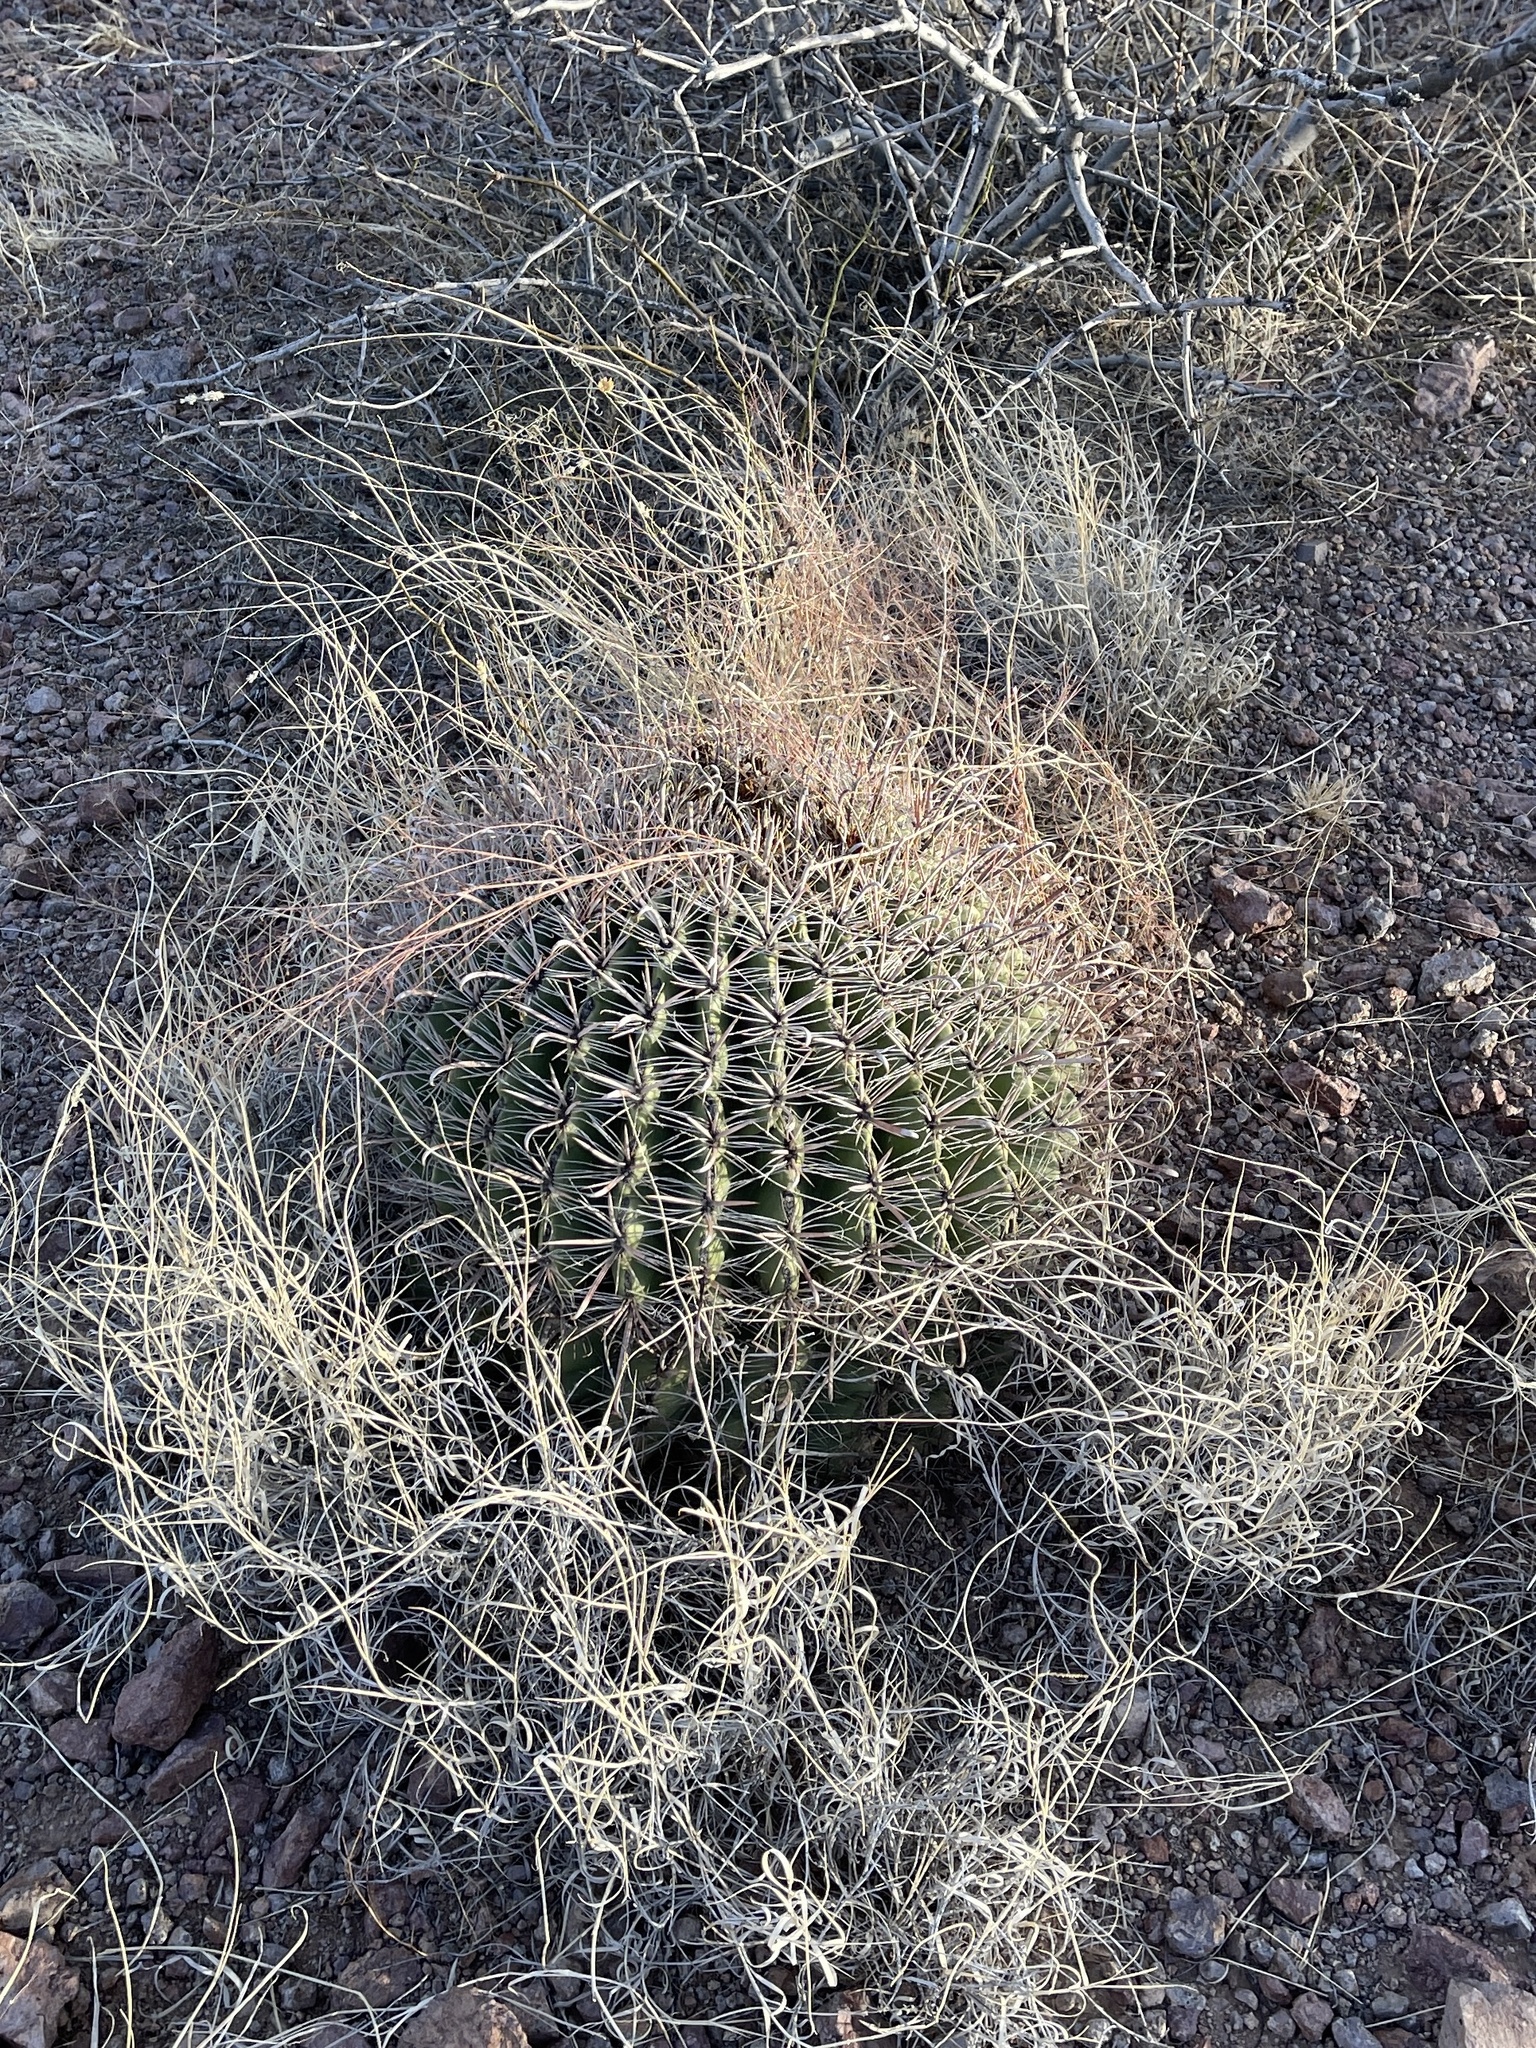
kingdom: Plantae
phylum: Tracheophyta
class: Magnoliopsida
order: Caryophyllales
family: Cactaceae
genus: Ferocactus
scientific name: Ferocactus wislizeni
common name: Candy barrel cactus
